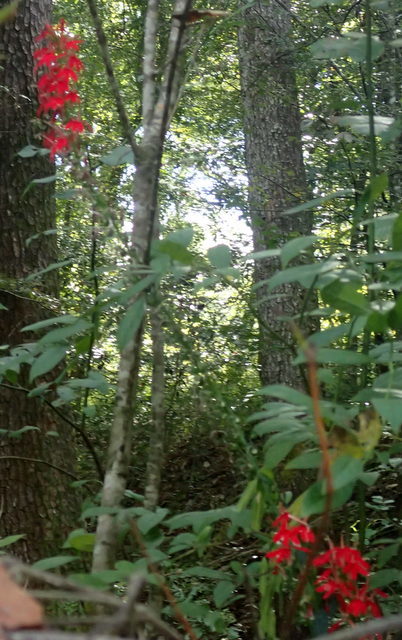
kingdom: Plantae
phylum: Tracheophyta
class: Magnoliopsida
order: Asterales
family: Campanulaceae
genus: Lobelia
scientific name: Lobelia cardinalis
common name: Cardinal flower
